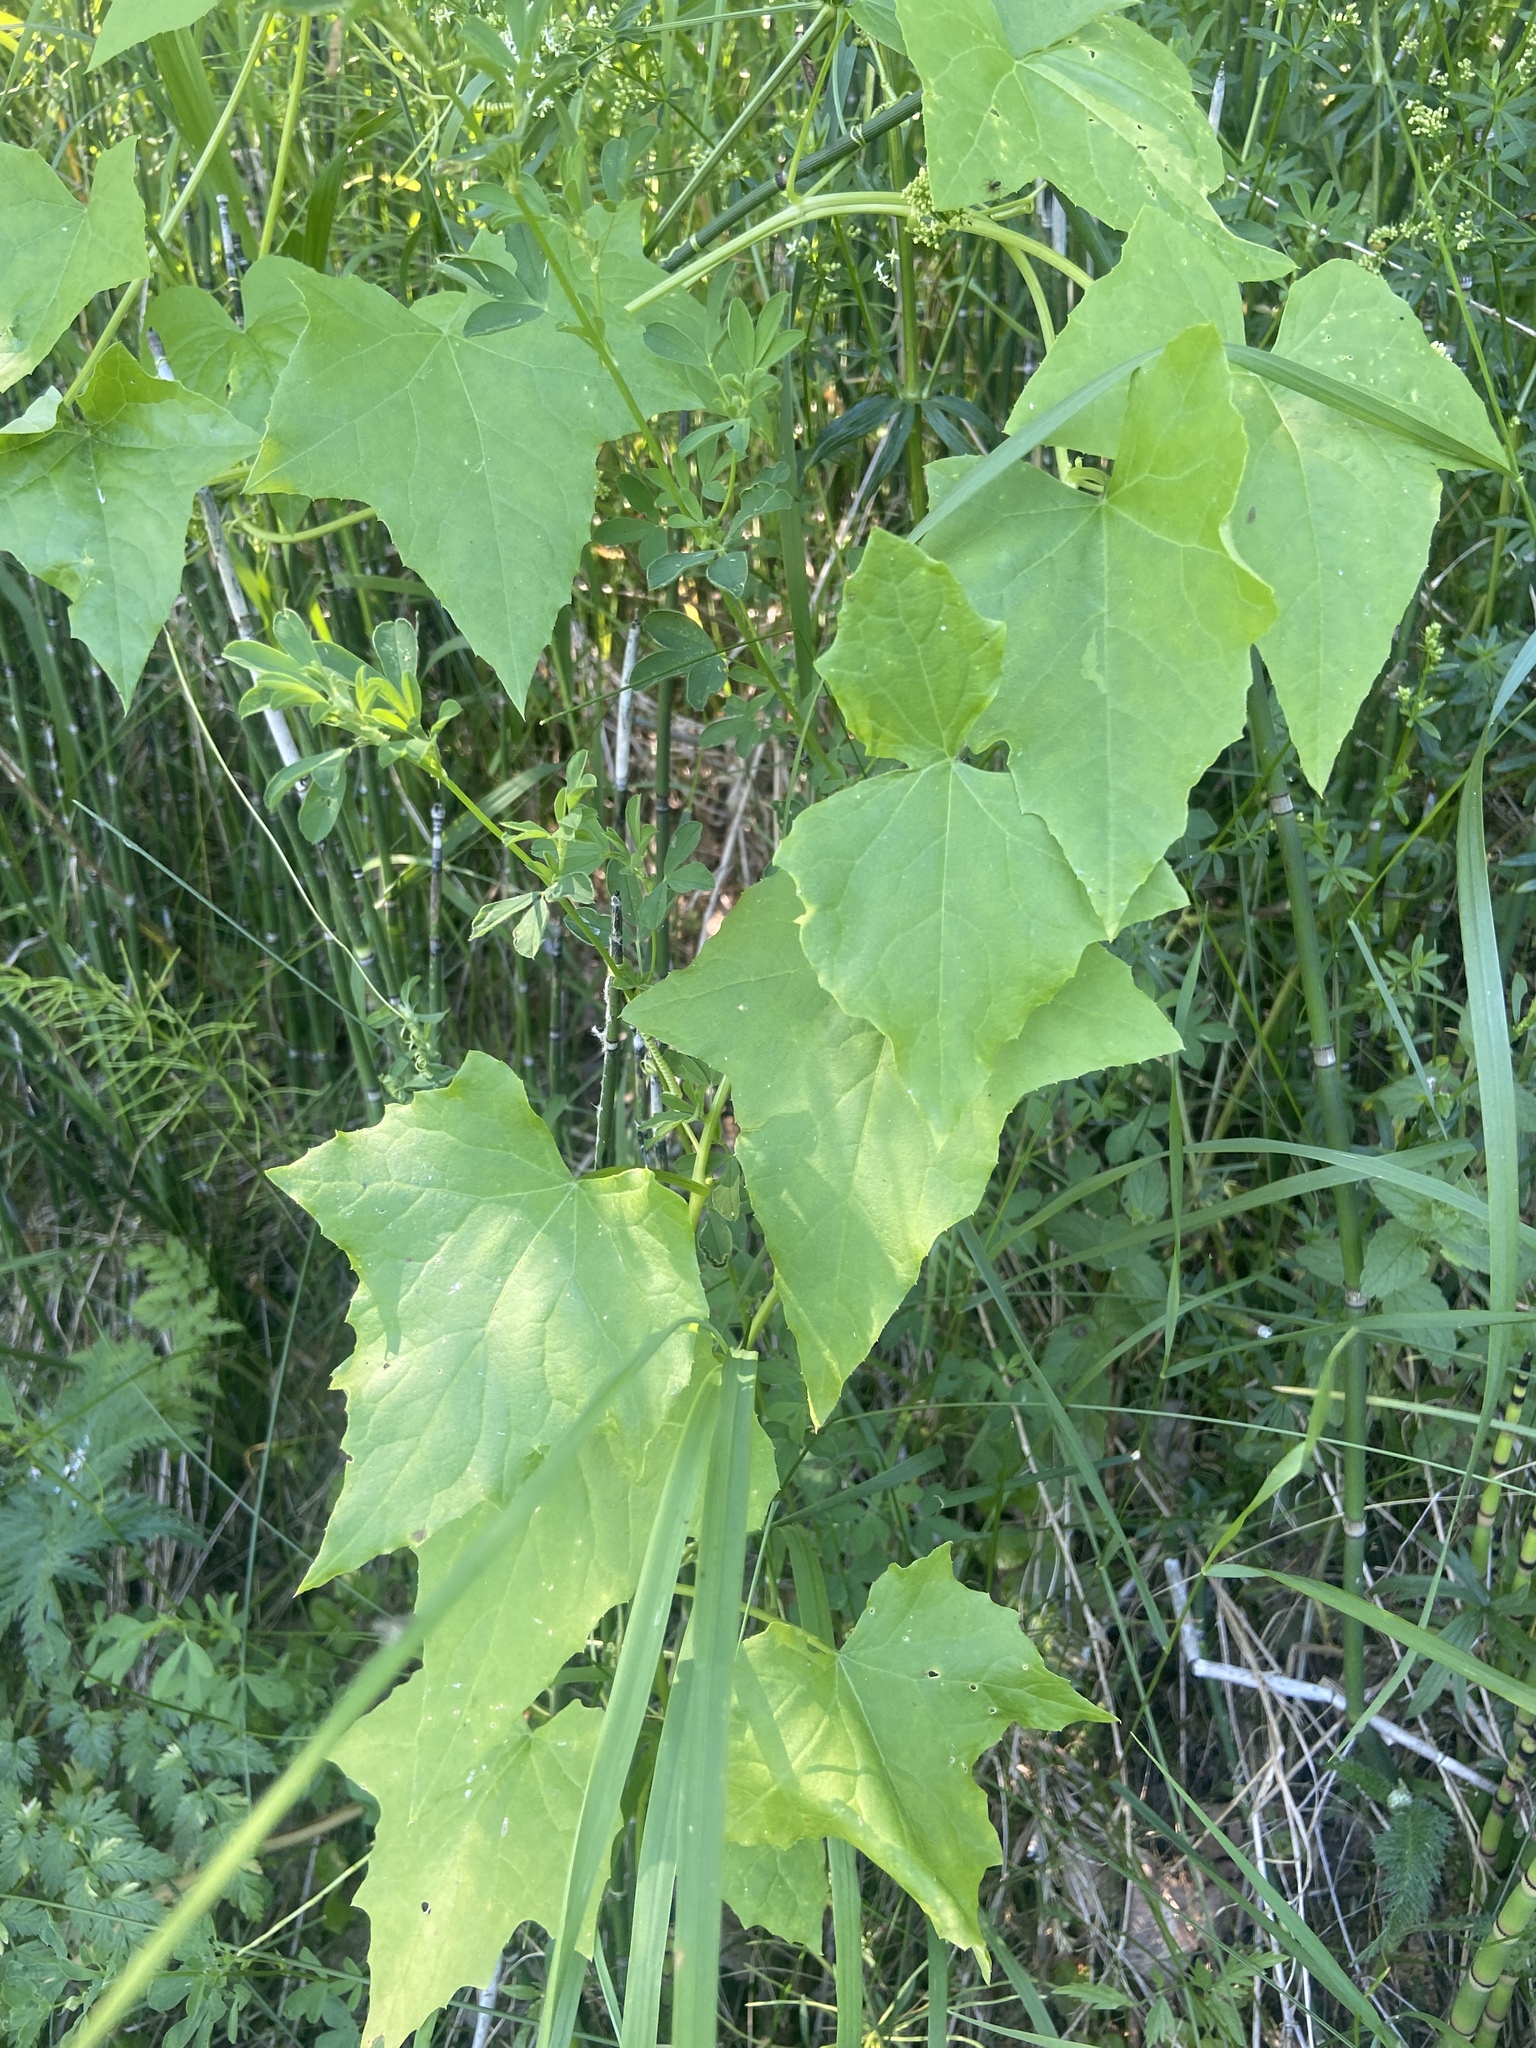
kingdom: Plantae
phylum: Tracheophyta
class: Magnoliopsida
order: Cucurbitales
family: Cucurbitaceae
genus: Echinocystis
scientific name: Echinocystis lobata
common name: Wild cucumber
